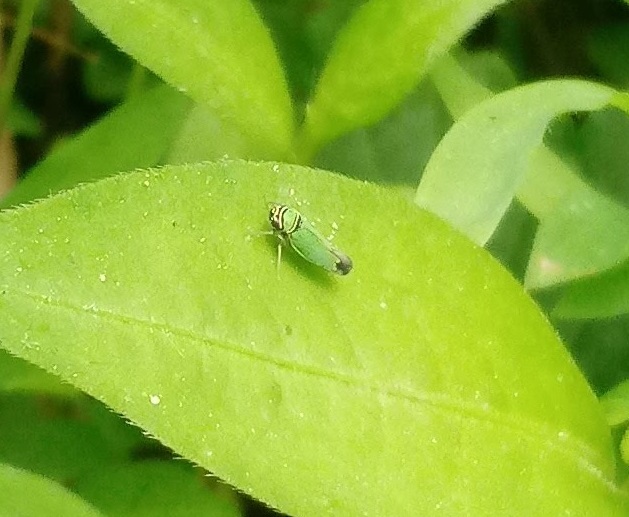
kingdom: Animalia
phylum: Arthropoda
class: Insecta
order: Hemiptera
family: Cicadellidae
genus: Tylozygus
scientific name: Tylozygus geometricus
